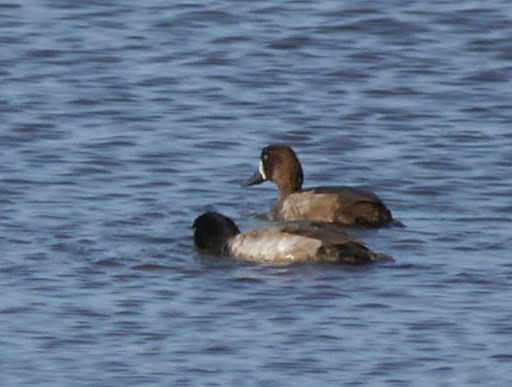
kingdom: Animalia
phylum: Chordata
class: Aves
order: Anseriformes
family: Anatidae
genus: Aythya
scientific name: Aythya affinis
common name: Lesser scaup
